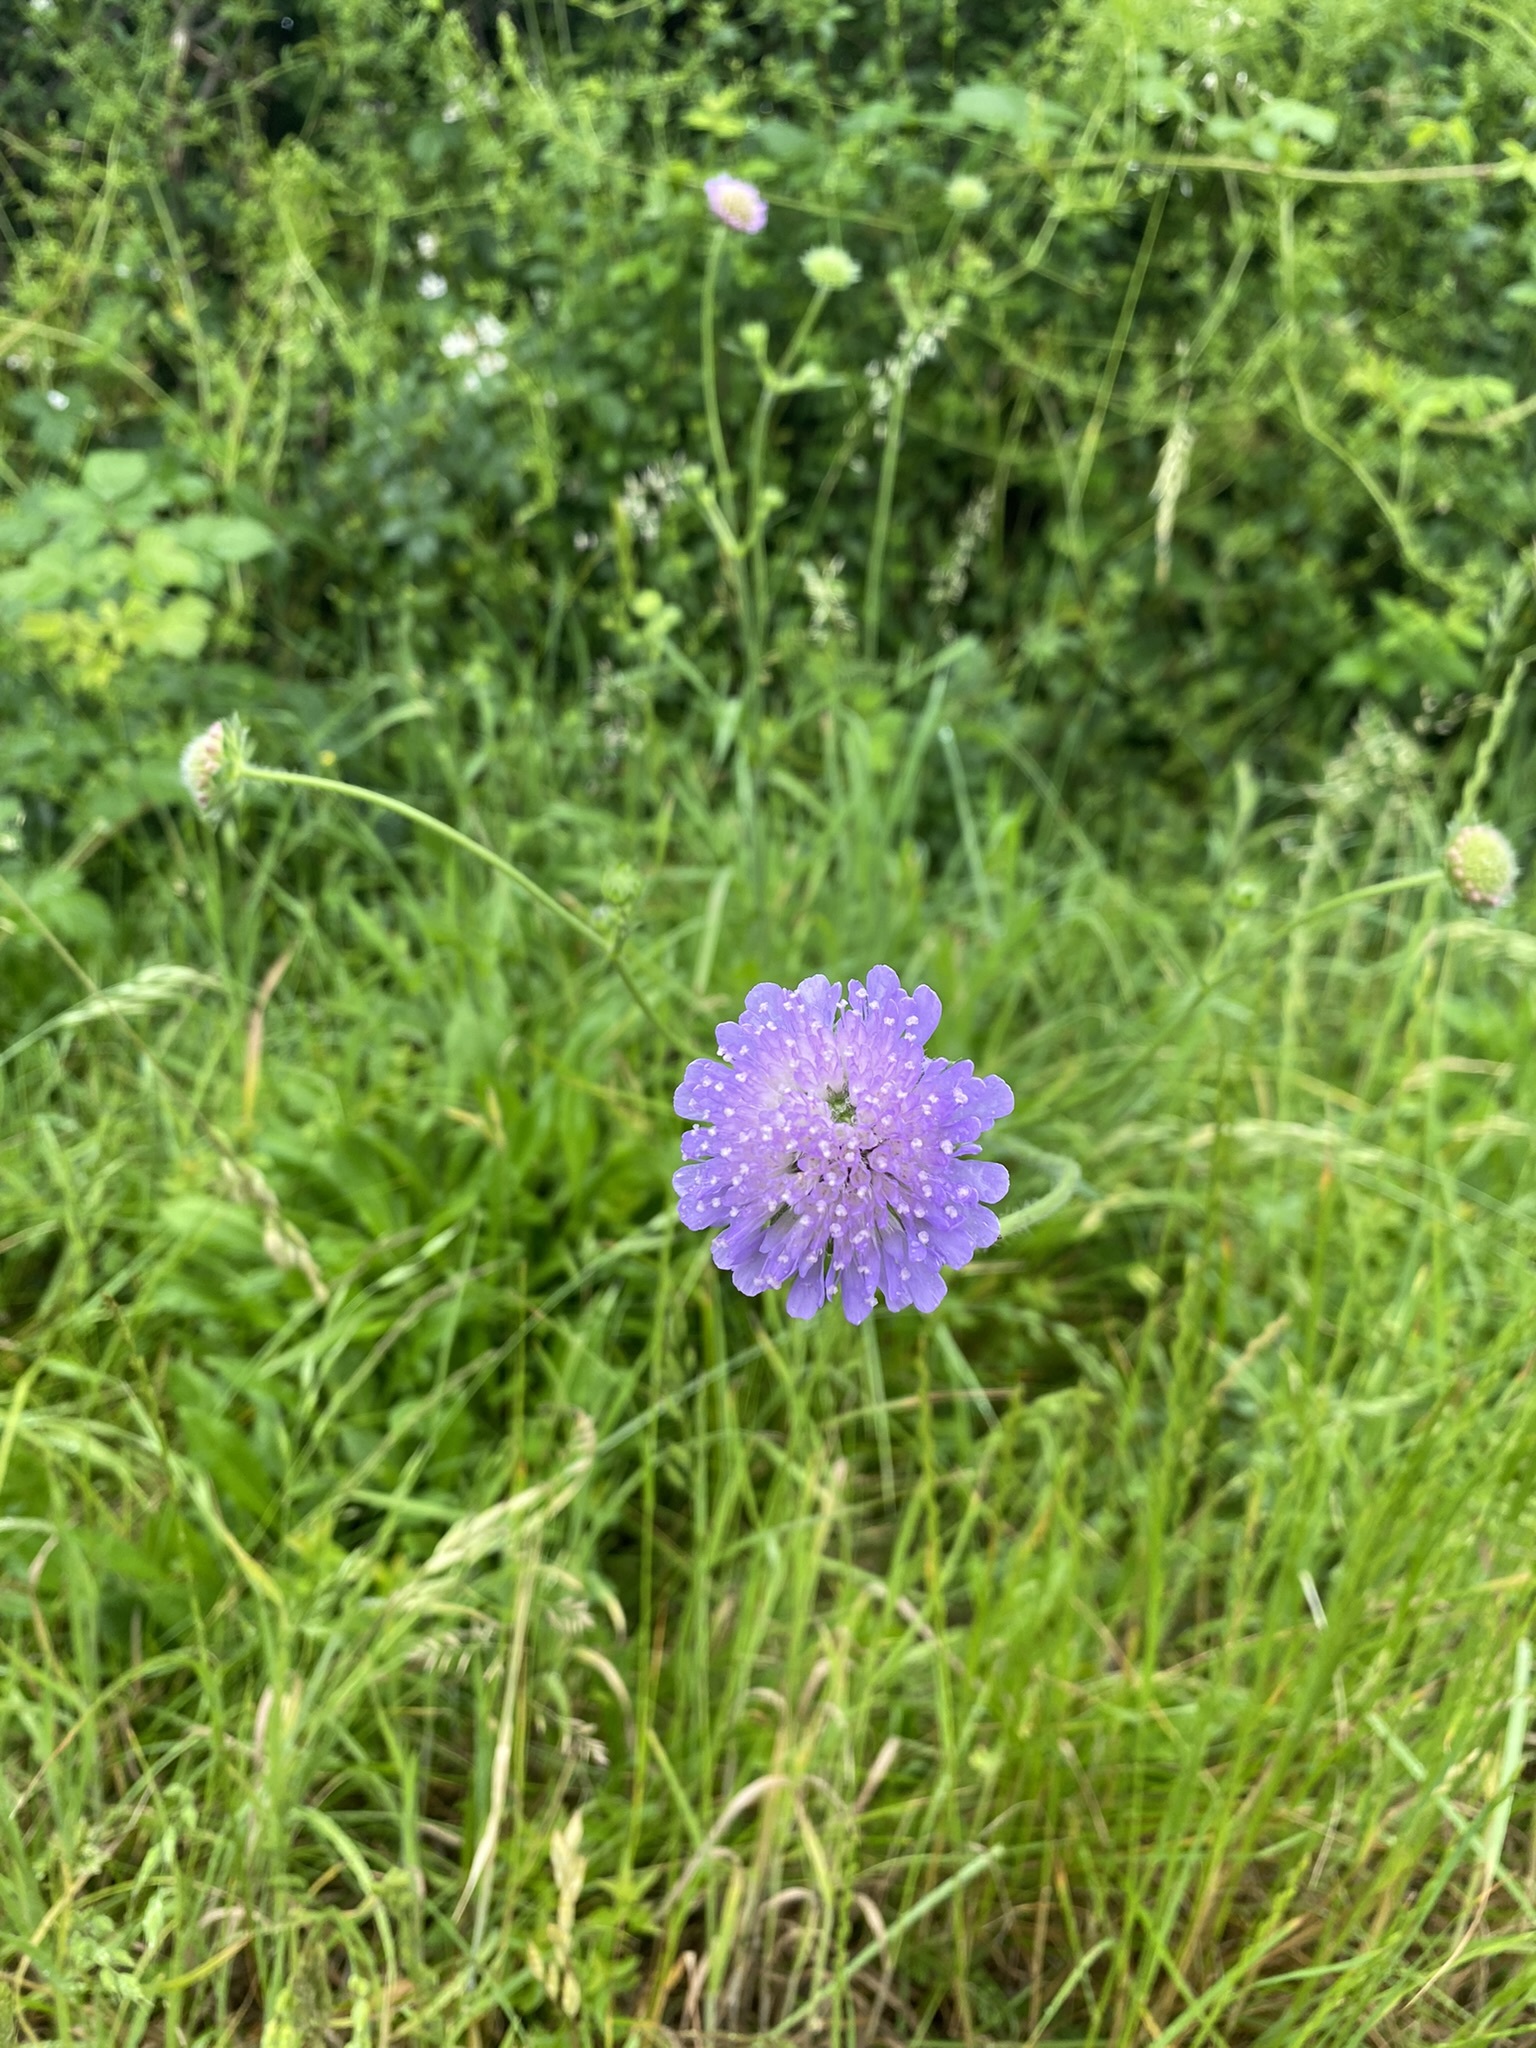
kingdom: Plantae
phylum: Tracheophyta
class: Magnoliopsida
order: Dipsacales
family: Caprifoliaceae
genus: Knautia
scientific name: Knautia arvensis
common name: Field scabiosa
